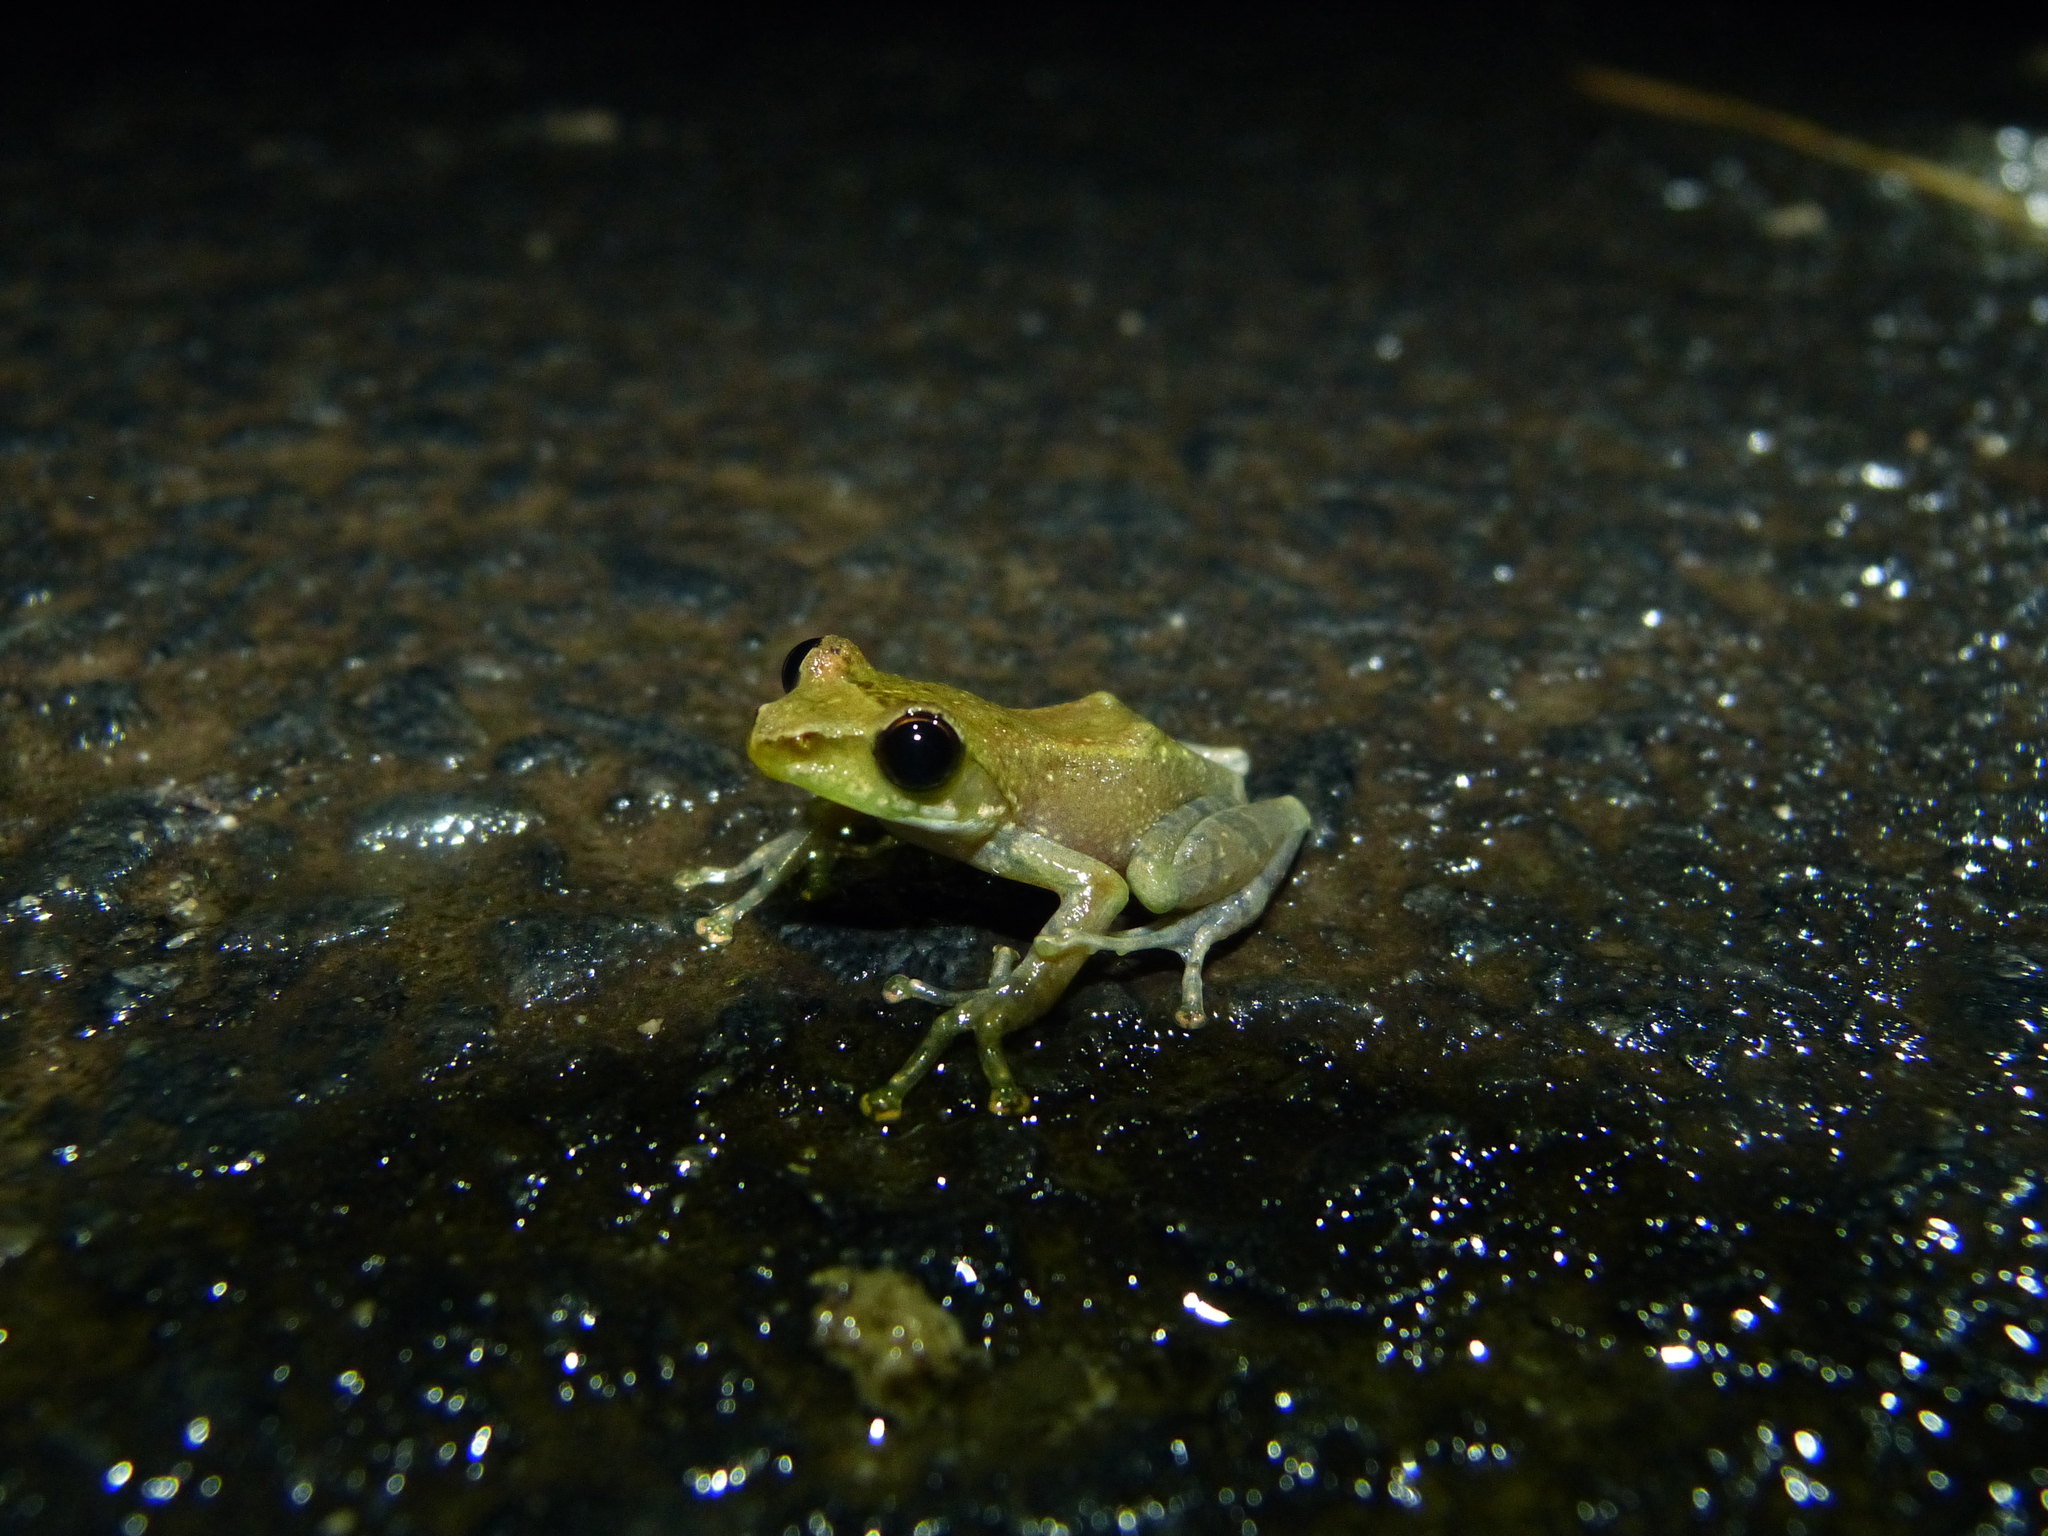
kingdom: Animalia
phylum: Chordata
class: Amphibia
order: Anura
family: Mantellidae
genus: Guibemantis
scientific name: Guibemantis liber
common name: Free madagascar frog
